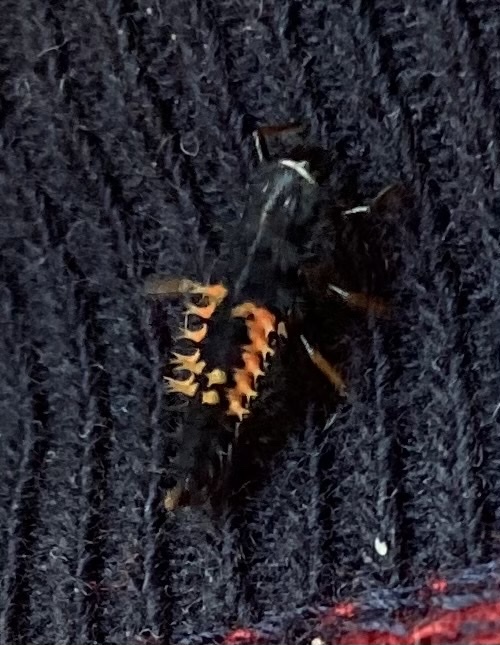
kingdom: Animalia
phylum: Arthropoda
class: Insecta
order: Coleoptera
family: Coccinellidae
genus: Harmonia
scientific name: Harmonia axyridis
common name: Harlequin ladybird
